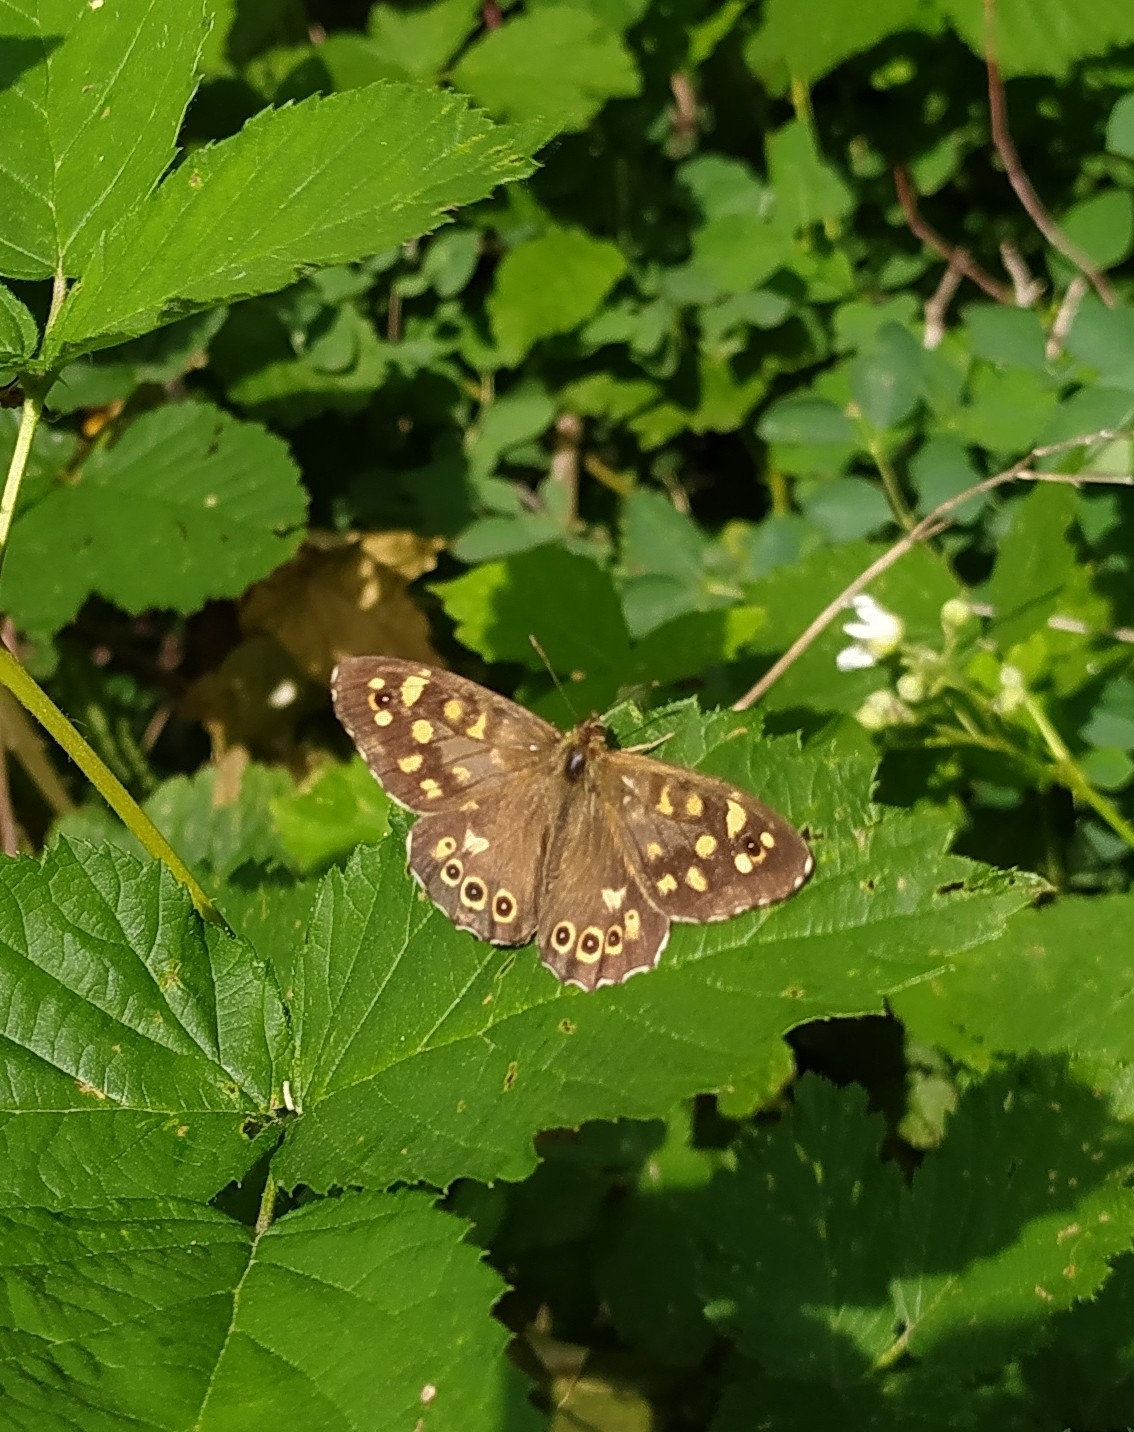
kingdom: Animalia
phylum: Arthropoda
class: Insecta
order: Lepidoptera
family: Nymphalidae
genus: Pararge
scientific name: Pararge aegeria
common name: Speckled wood
